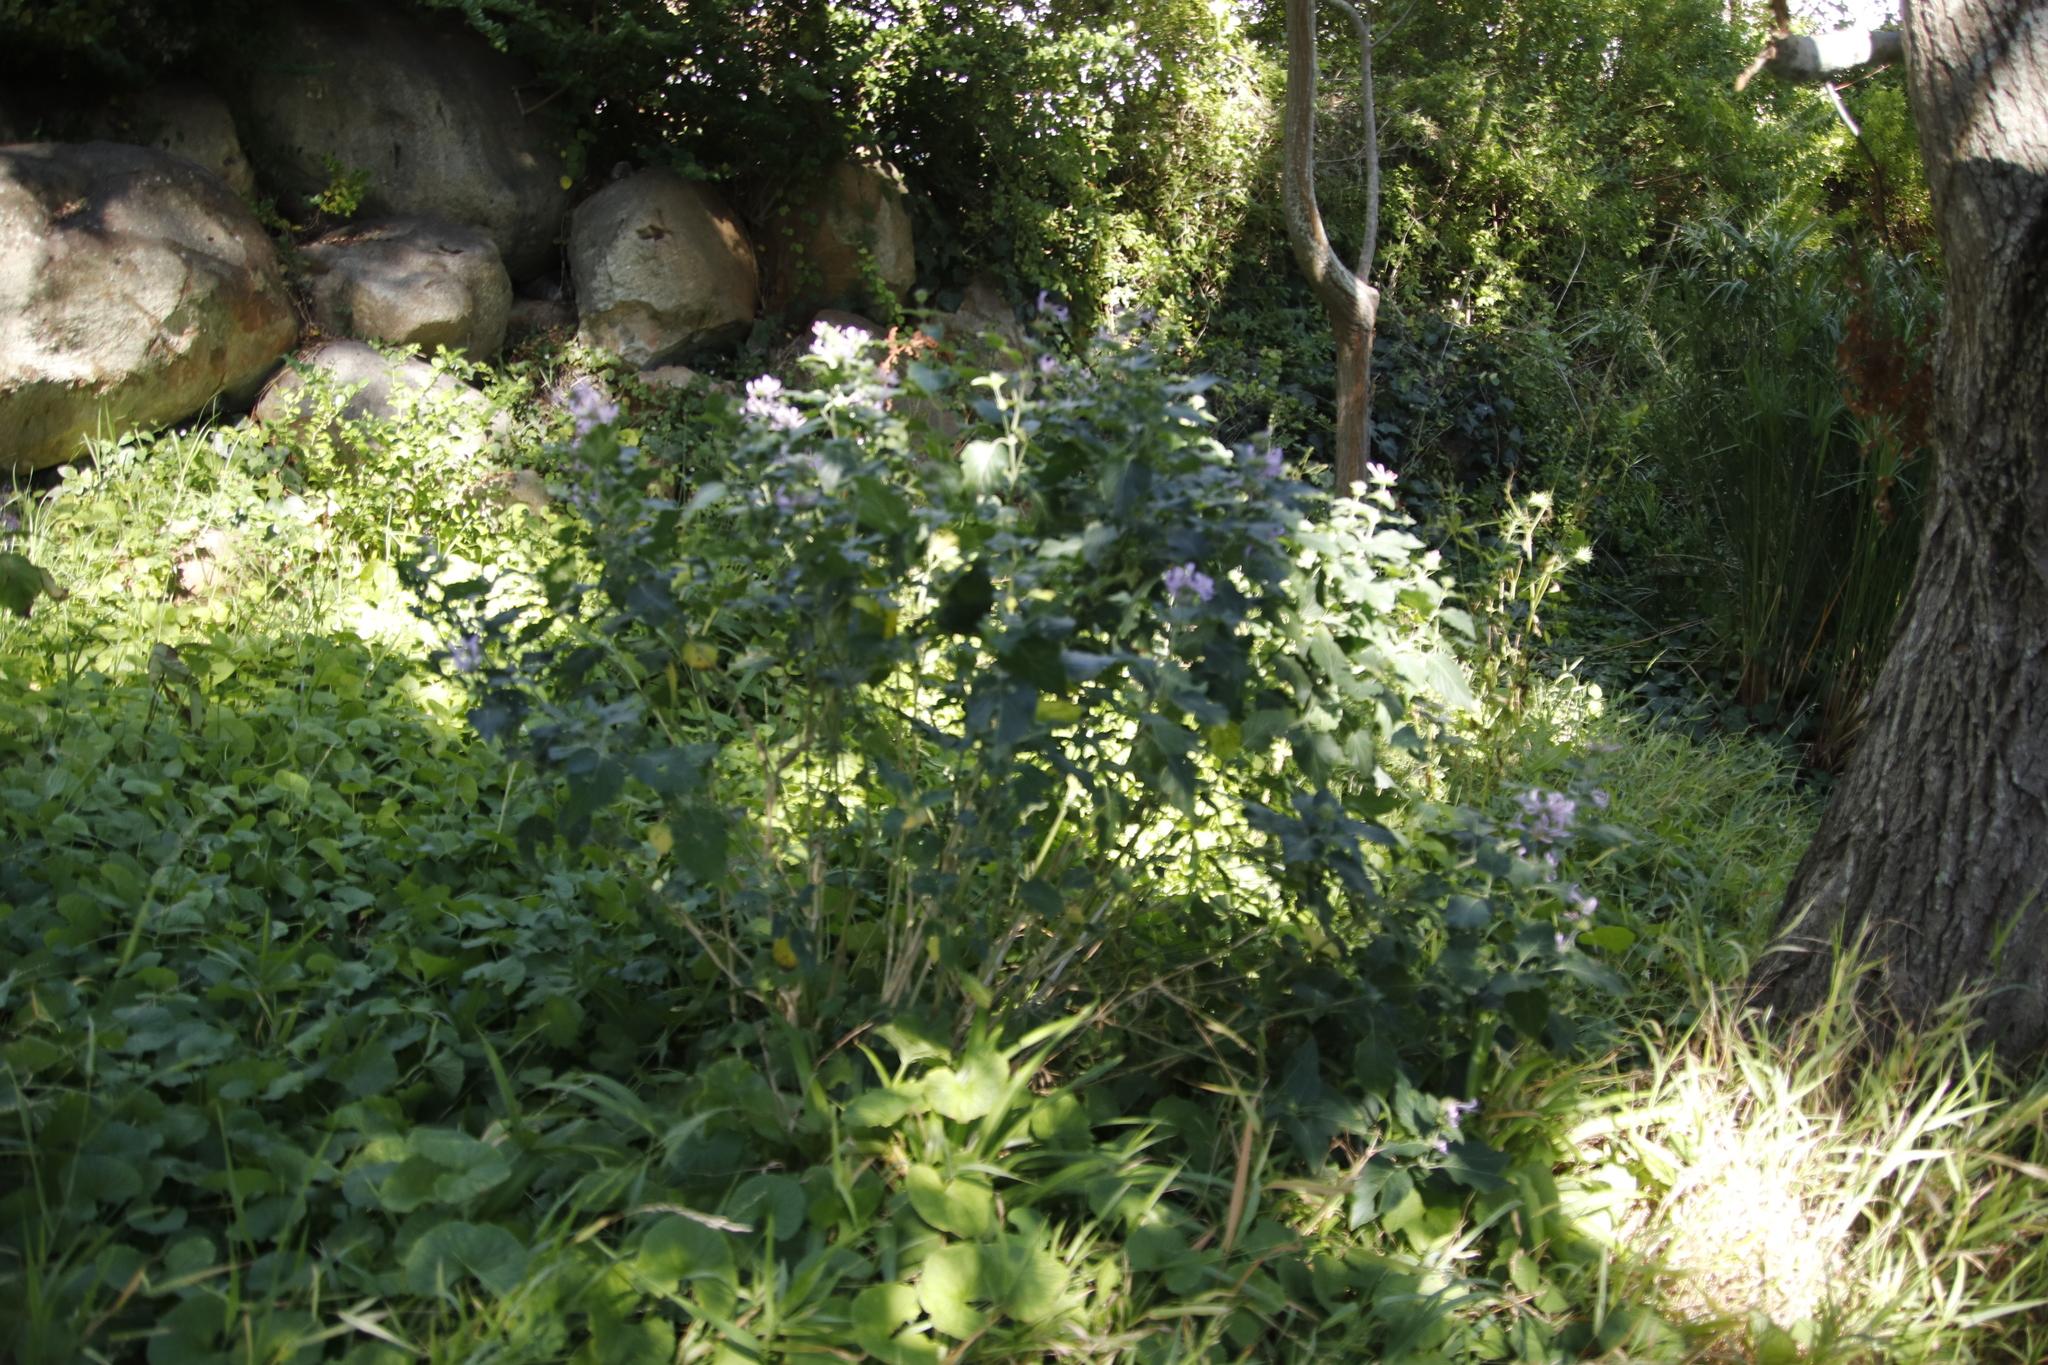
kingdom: Plantae
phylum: Tracheophyta
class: Magnoliopsida
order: Lamiales
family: Acanthaceae
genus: Hypoestes
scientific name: Hypoestes aristata
